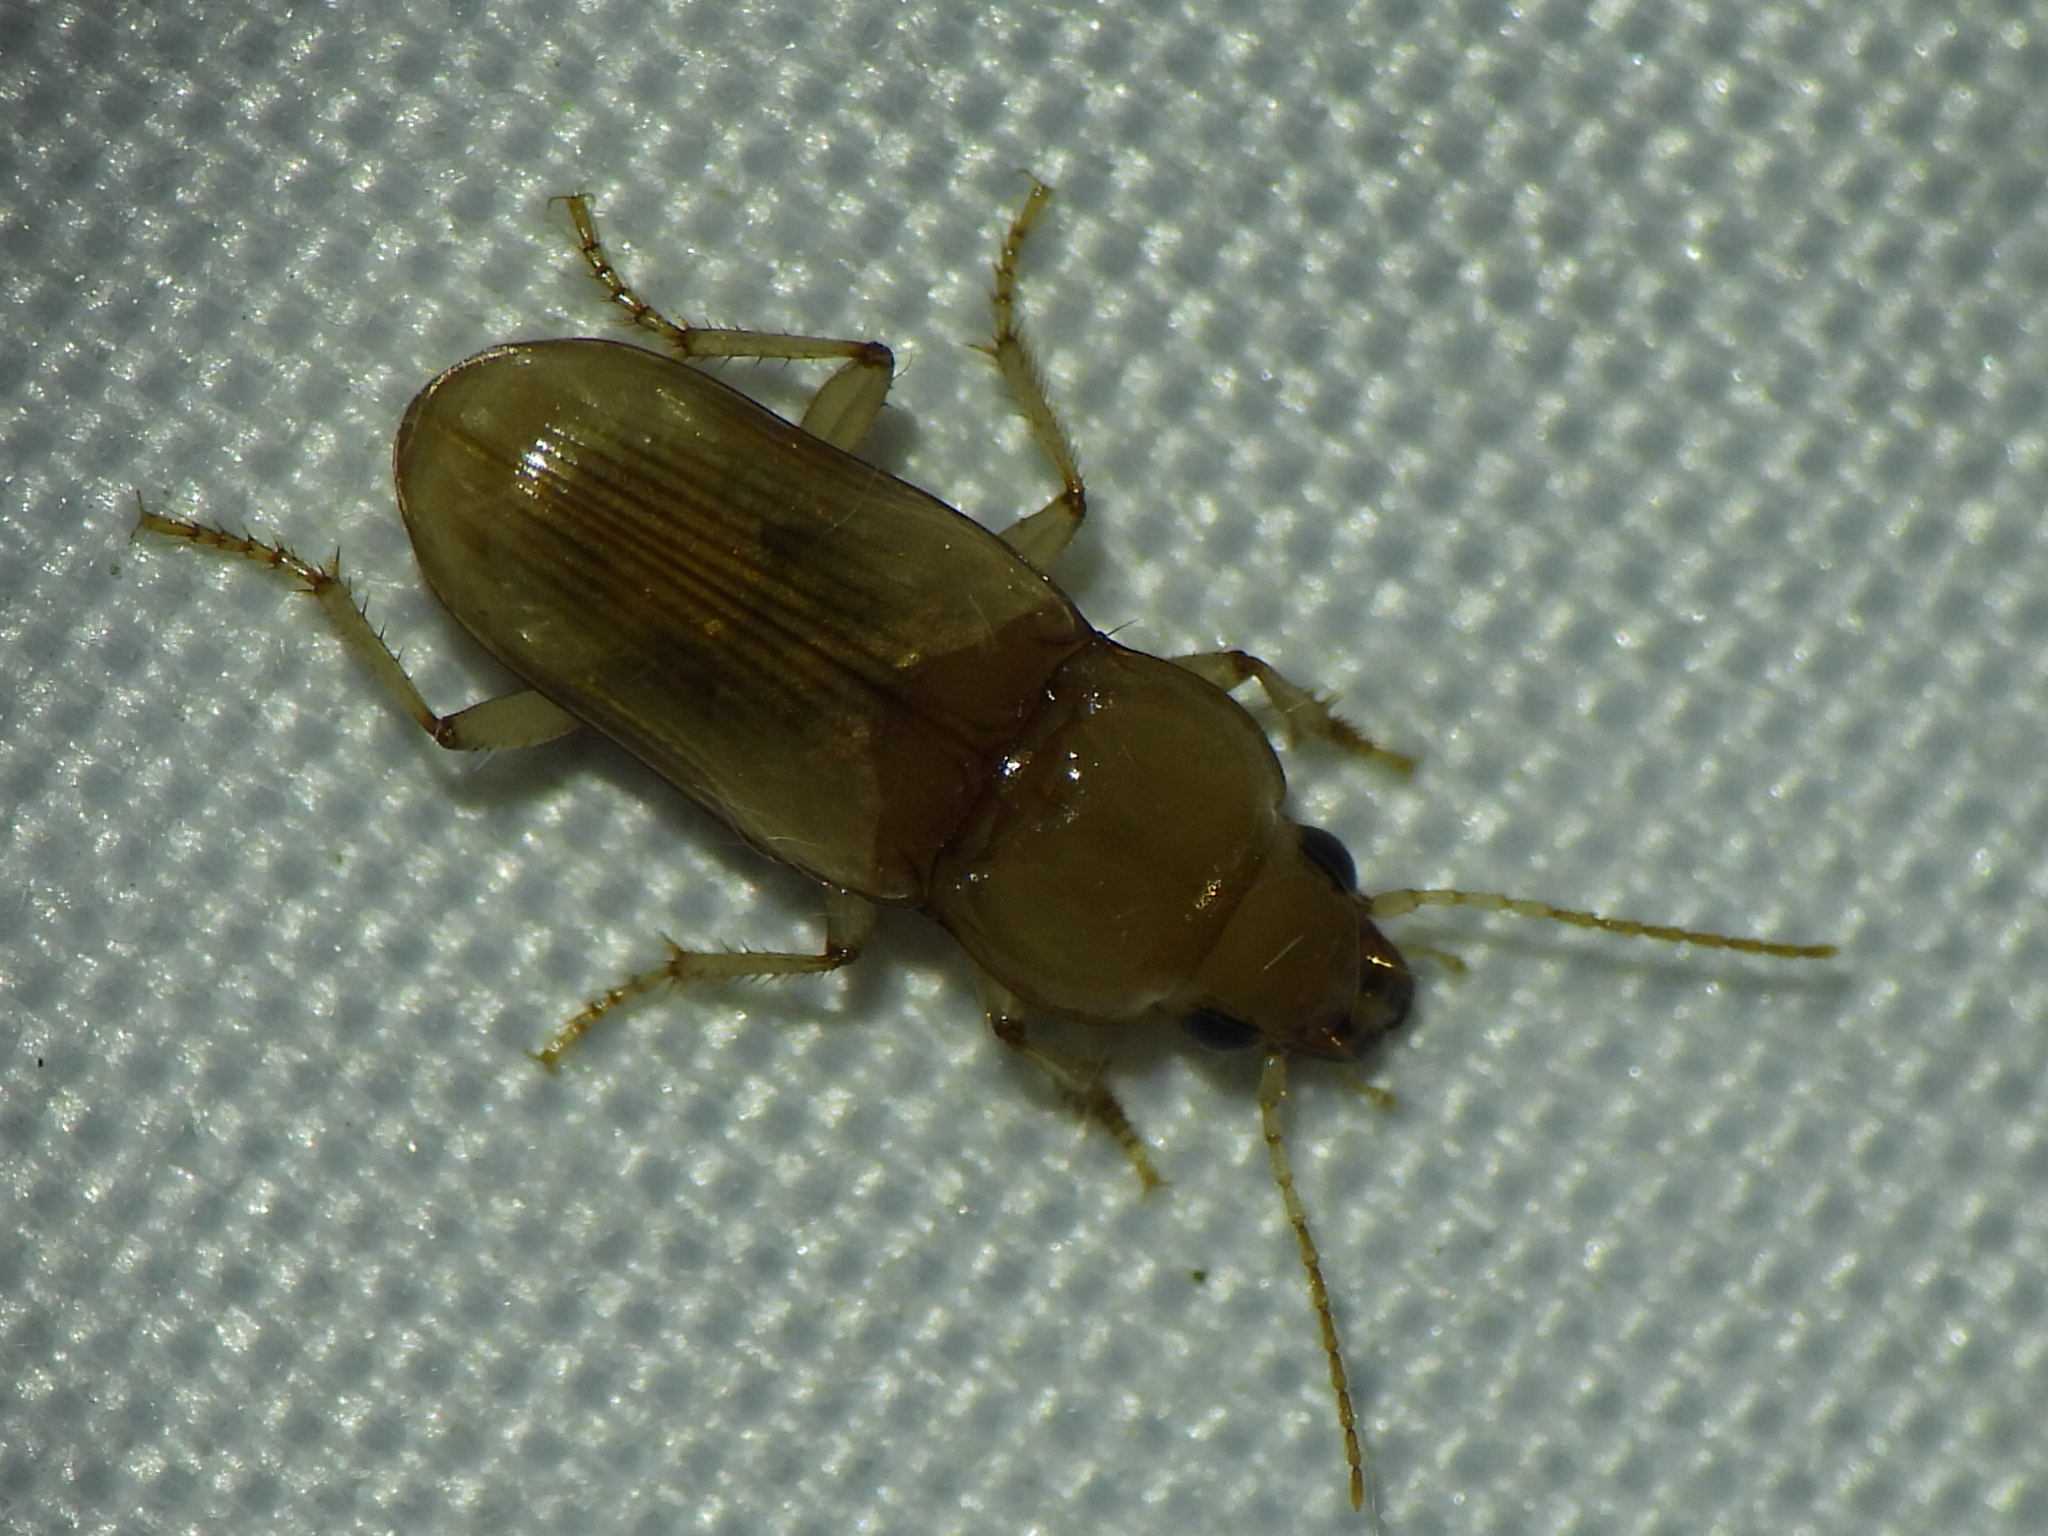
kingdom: Animalia
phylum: Arthropoda
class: Insecta
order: Coleoptera
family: Carabidae
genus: Diplochaetus
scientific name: Diplochaetus rutilus
